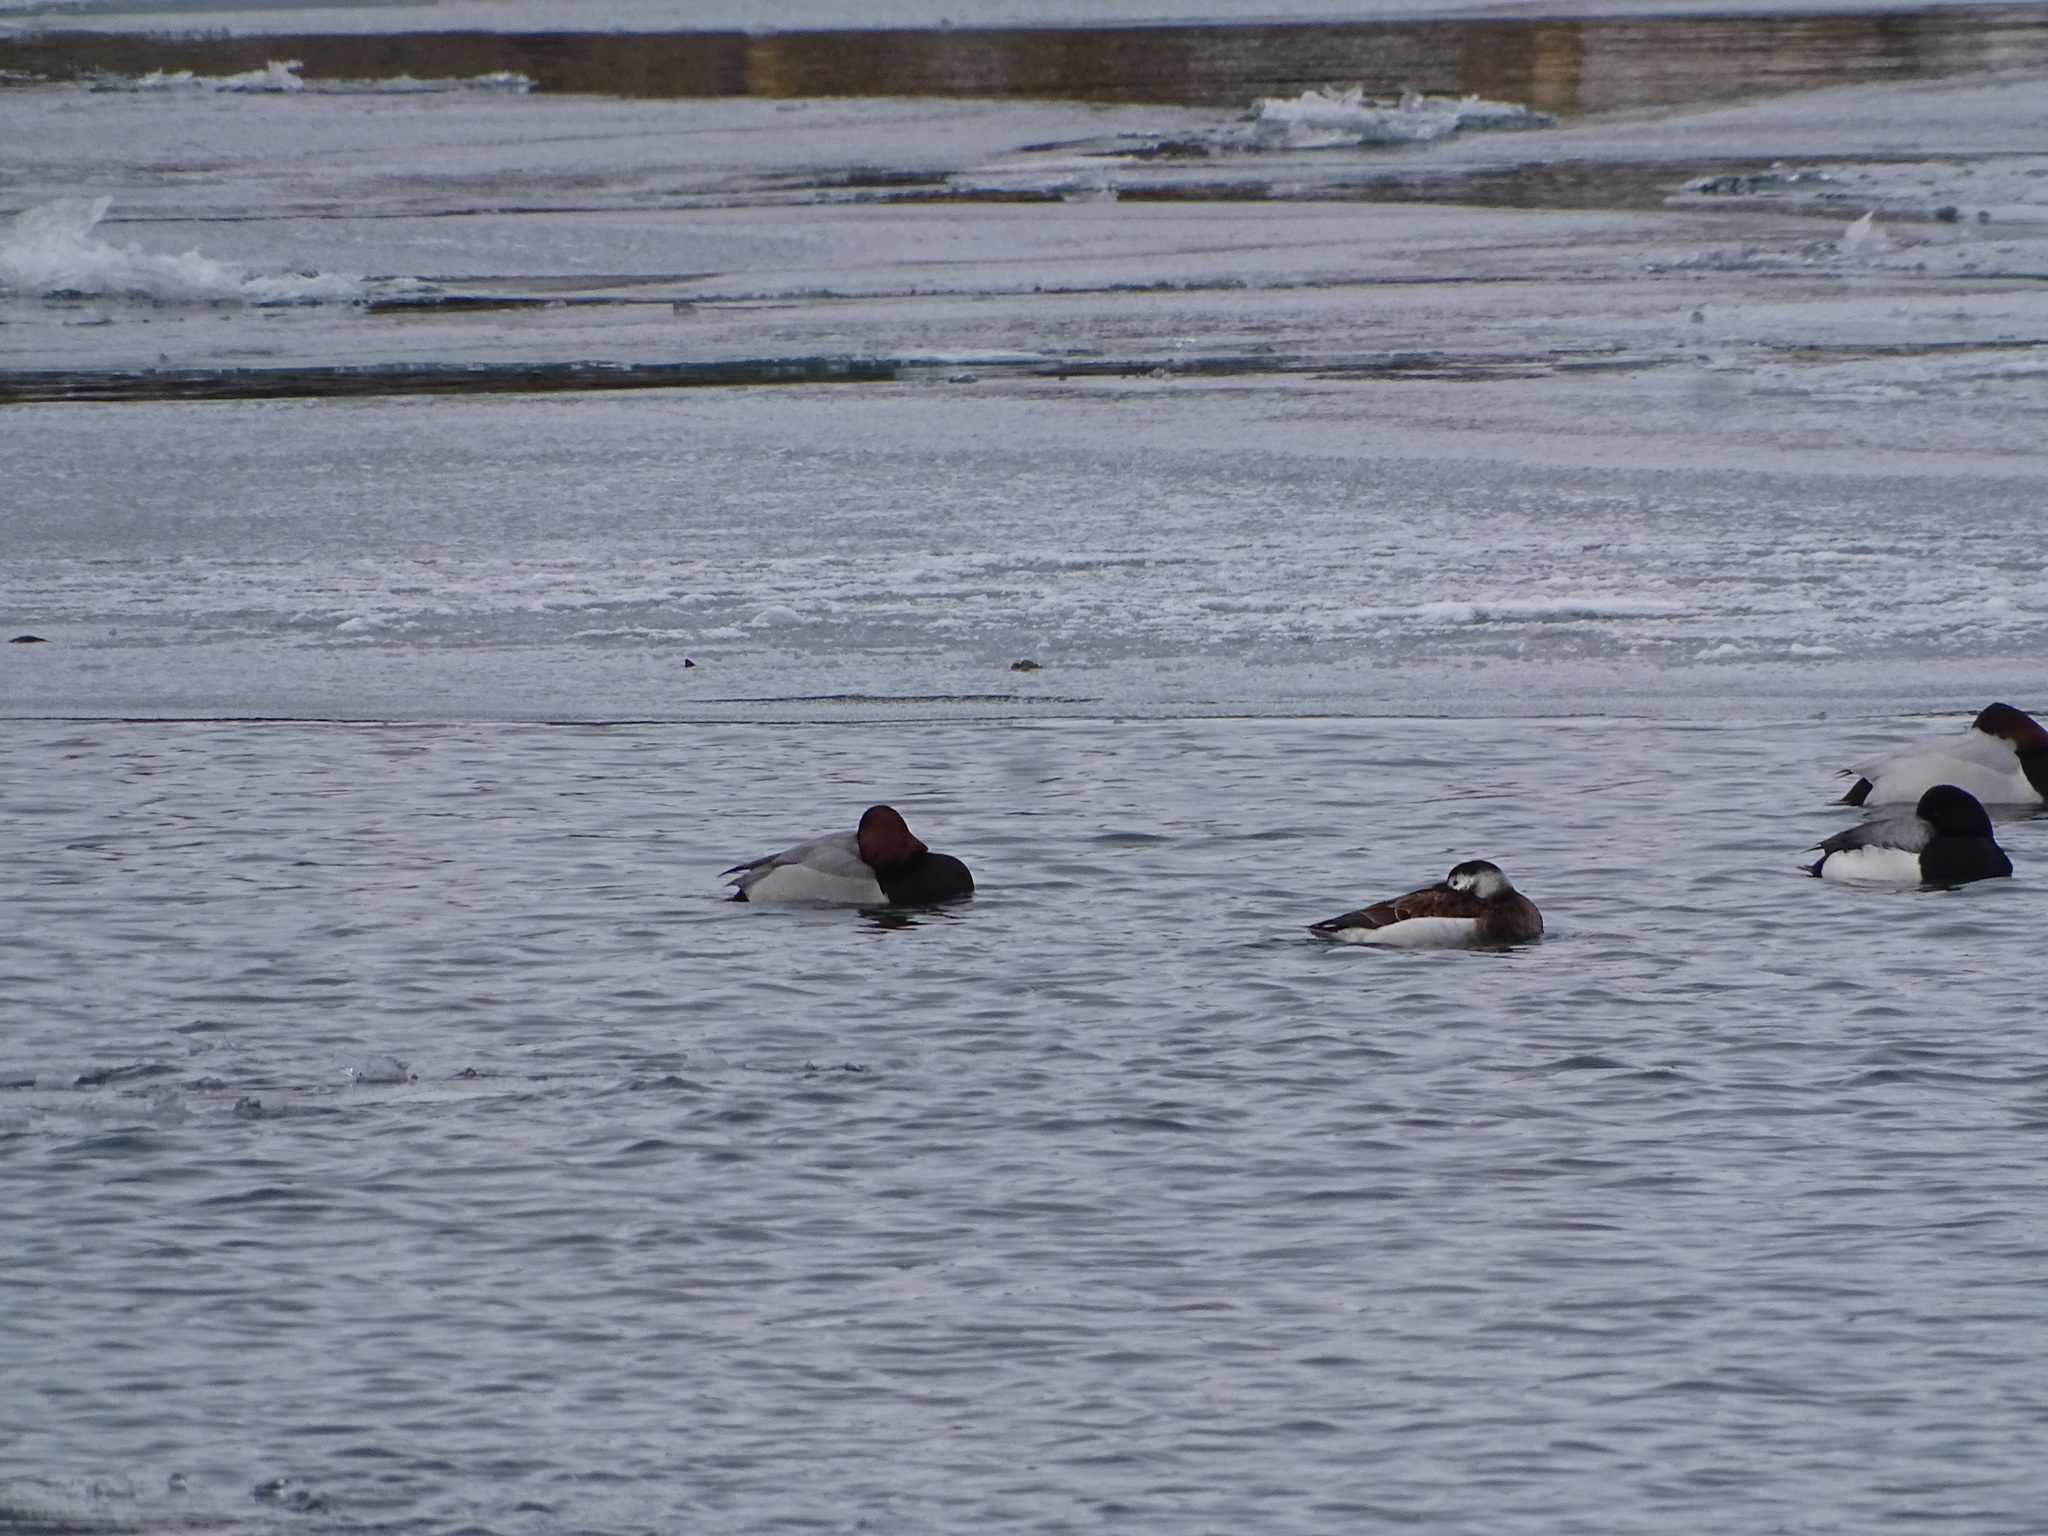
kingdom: Animalia
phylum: Chordata
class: Aves
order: Anseriformes
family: Anatidae
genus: Aythya
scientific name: Aythya
